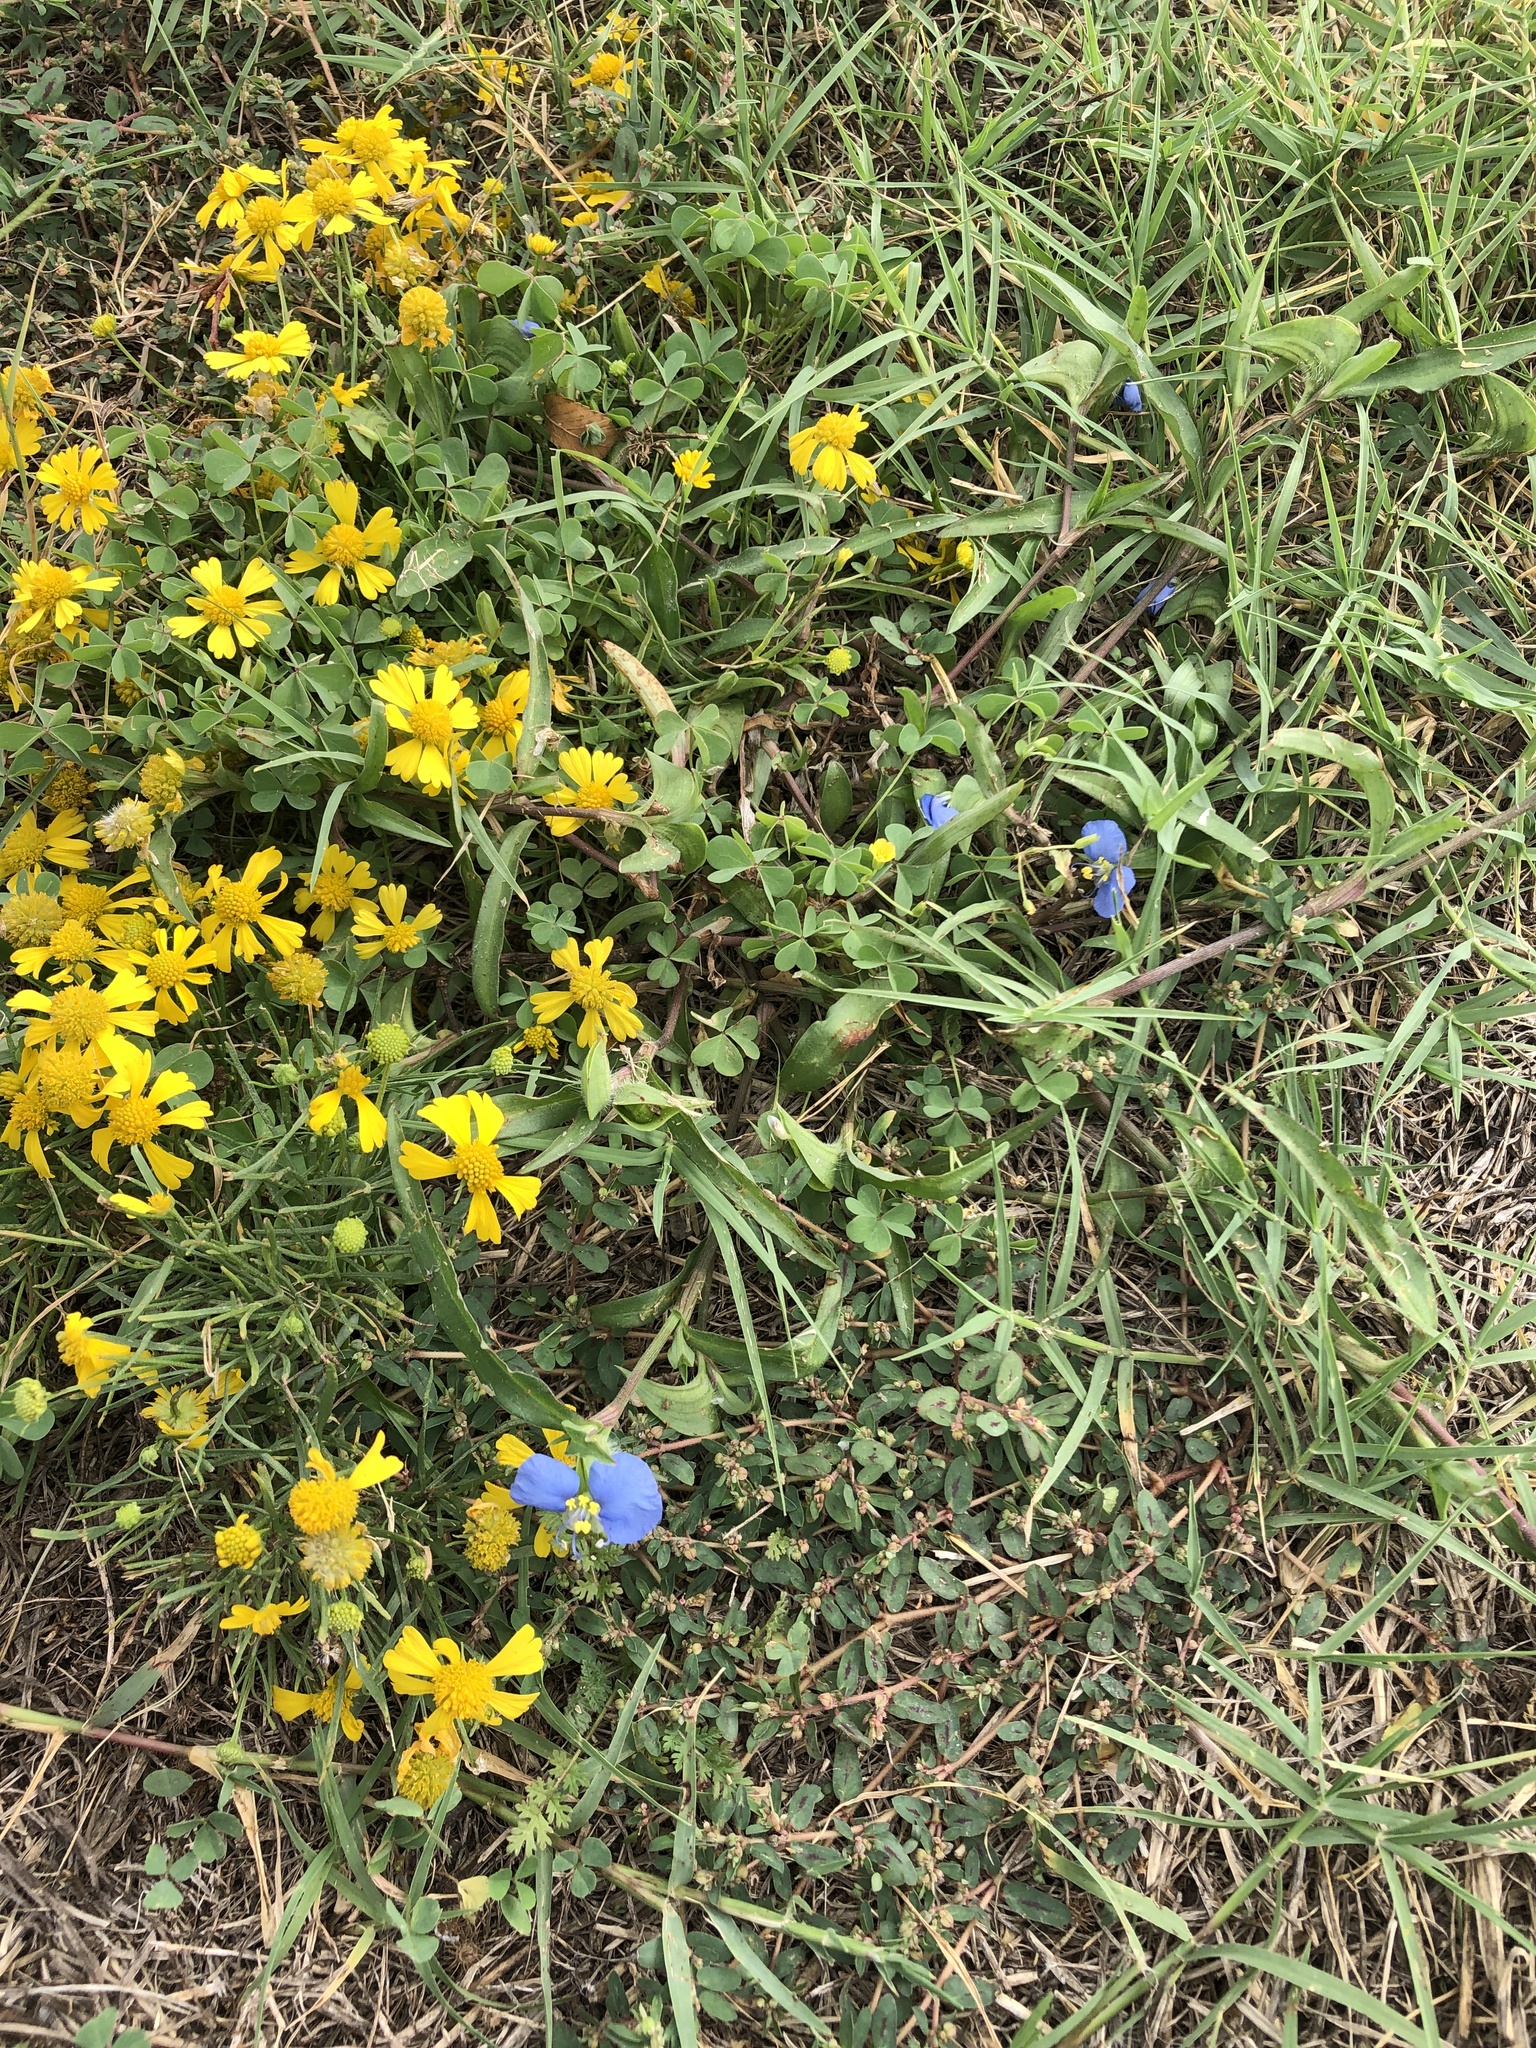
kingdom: Plantae
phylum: Tracheophyta
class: Liliopsida
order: Commelinales
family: Commelinaceae
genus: Commelina
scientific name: Commelina erecta
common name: Blousel blommetjie
